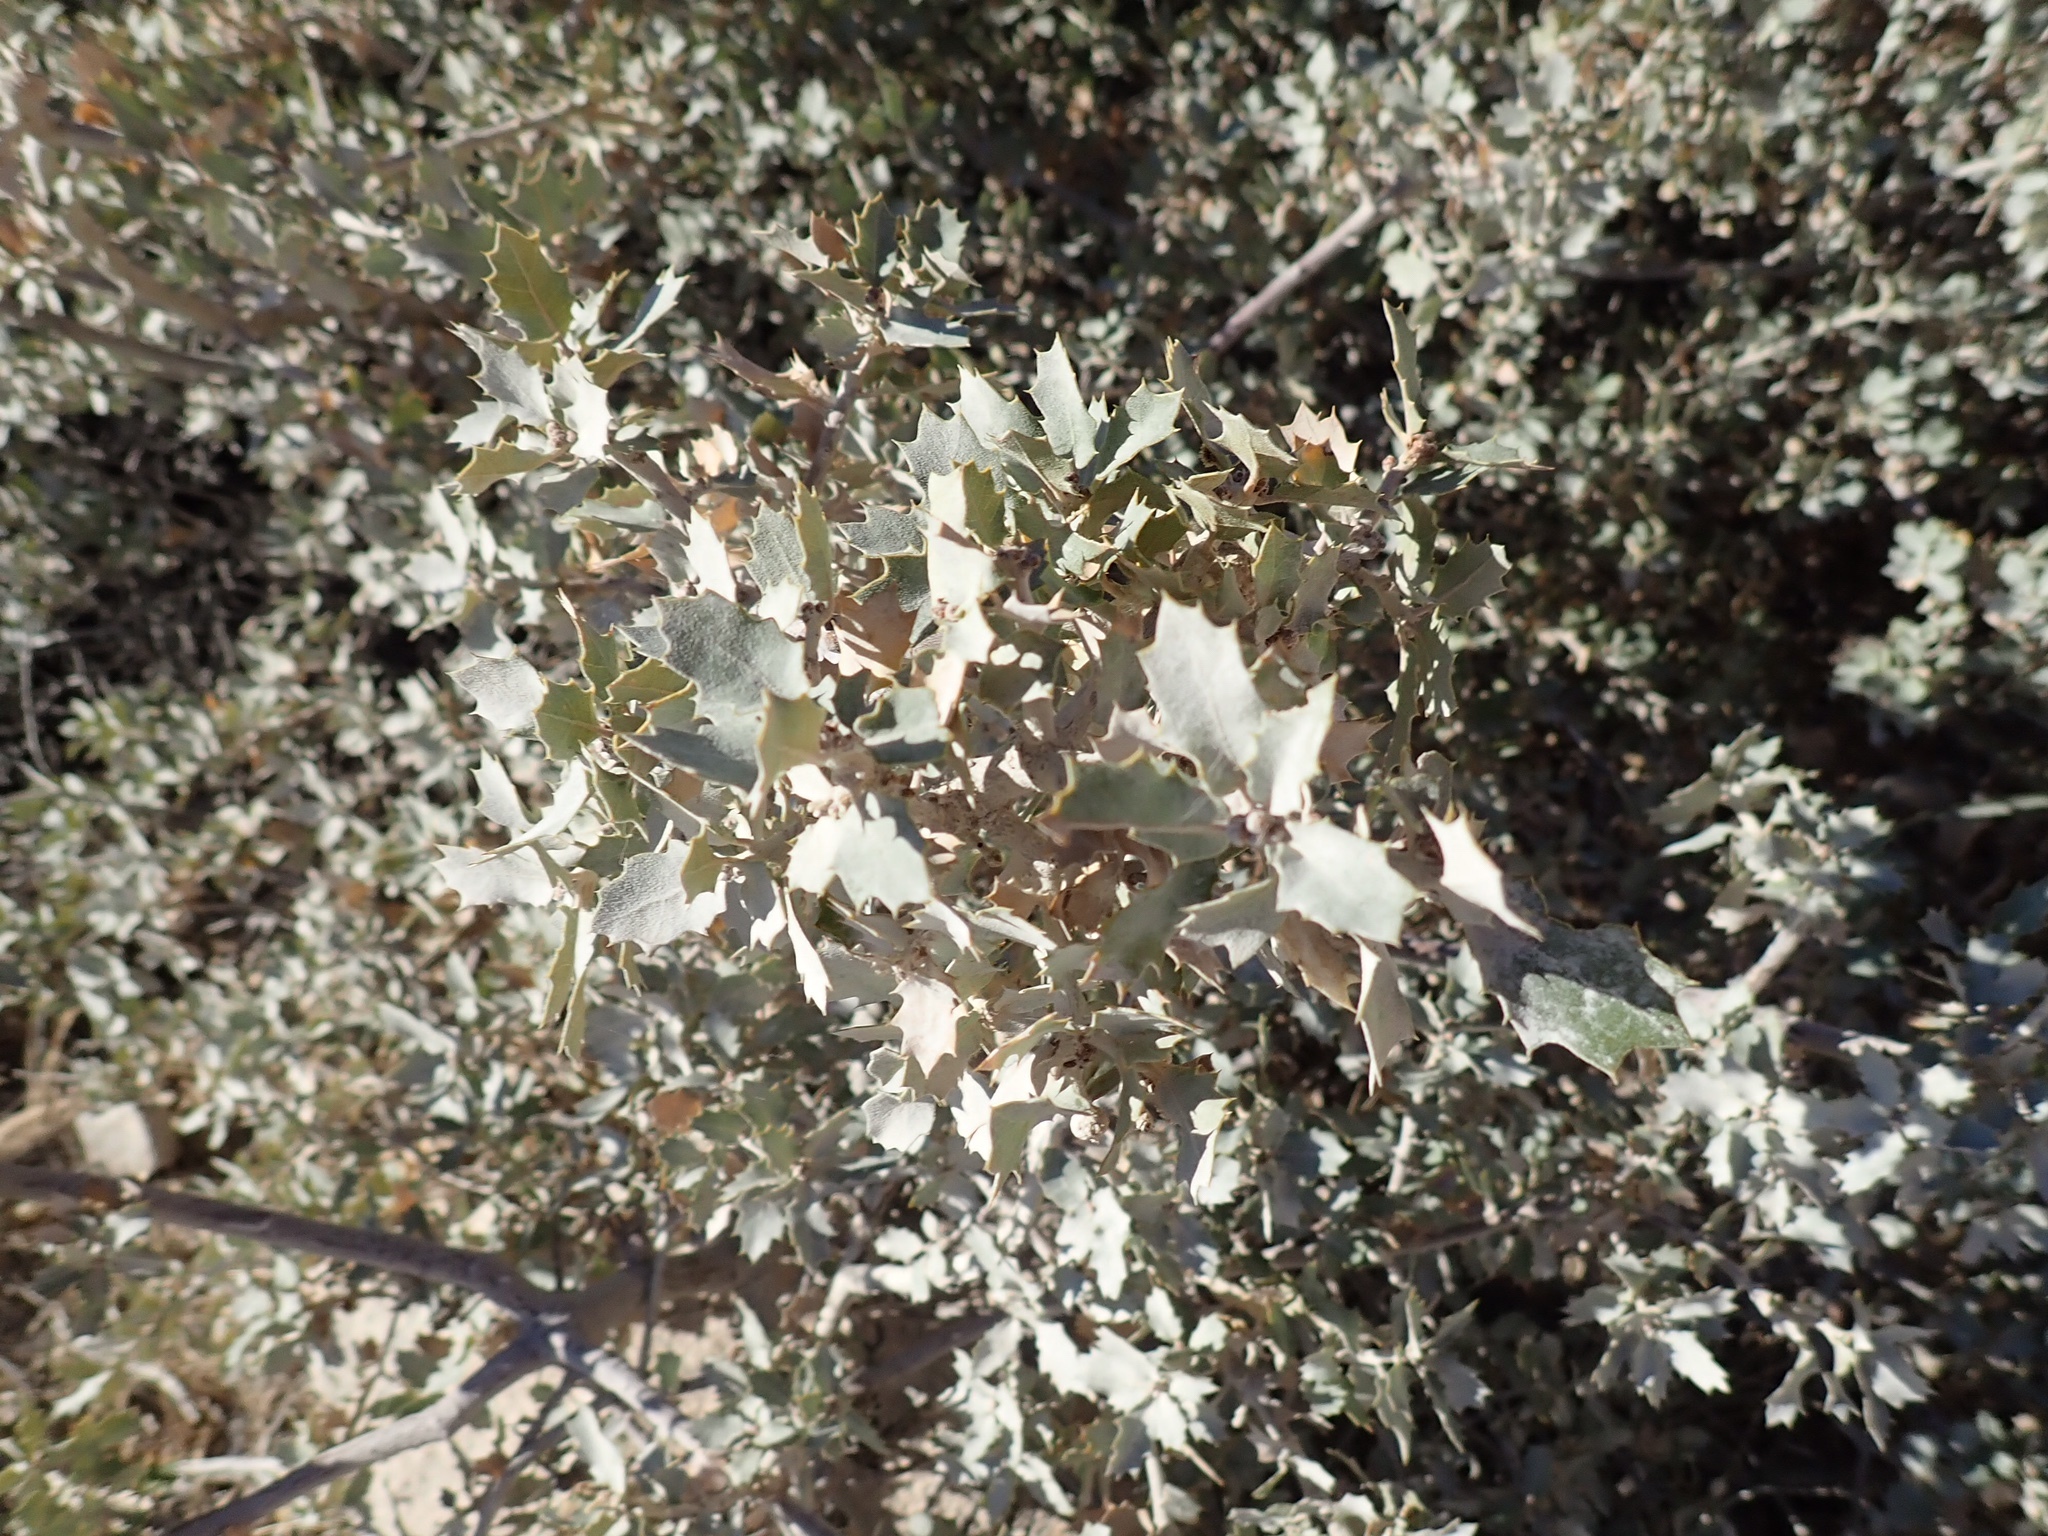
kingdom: Plantae
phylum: Tracheophyta
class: Magnoliopsida
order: Fagales
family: Fagaceae
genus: Quercus
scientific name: Quercus turbinella
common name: Sonoran scrub oak
